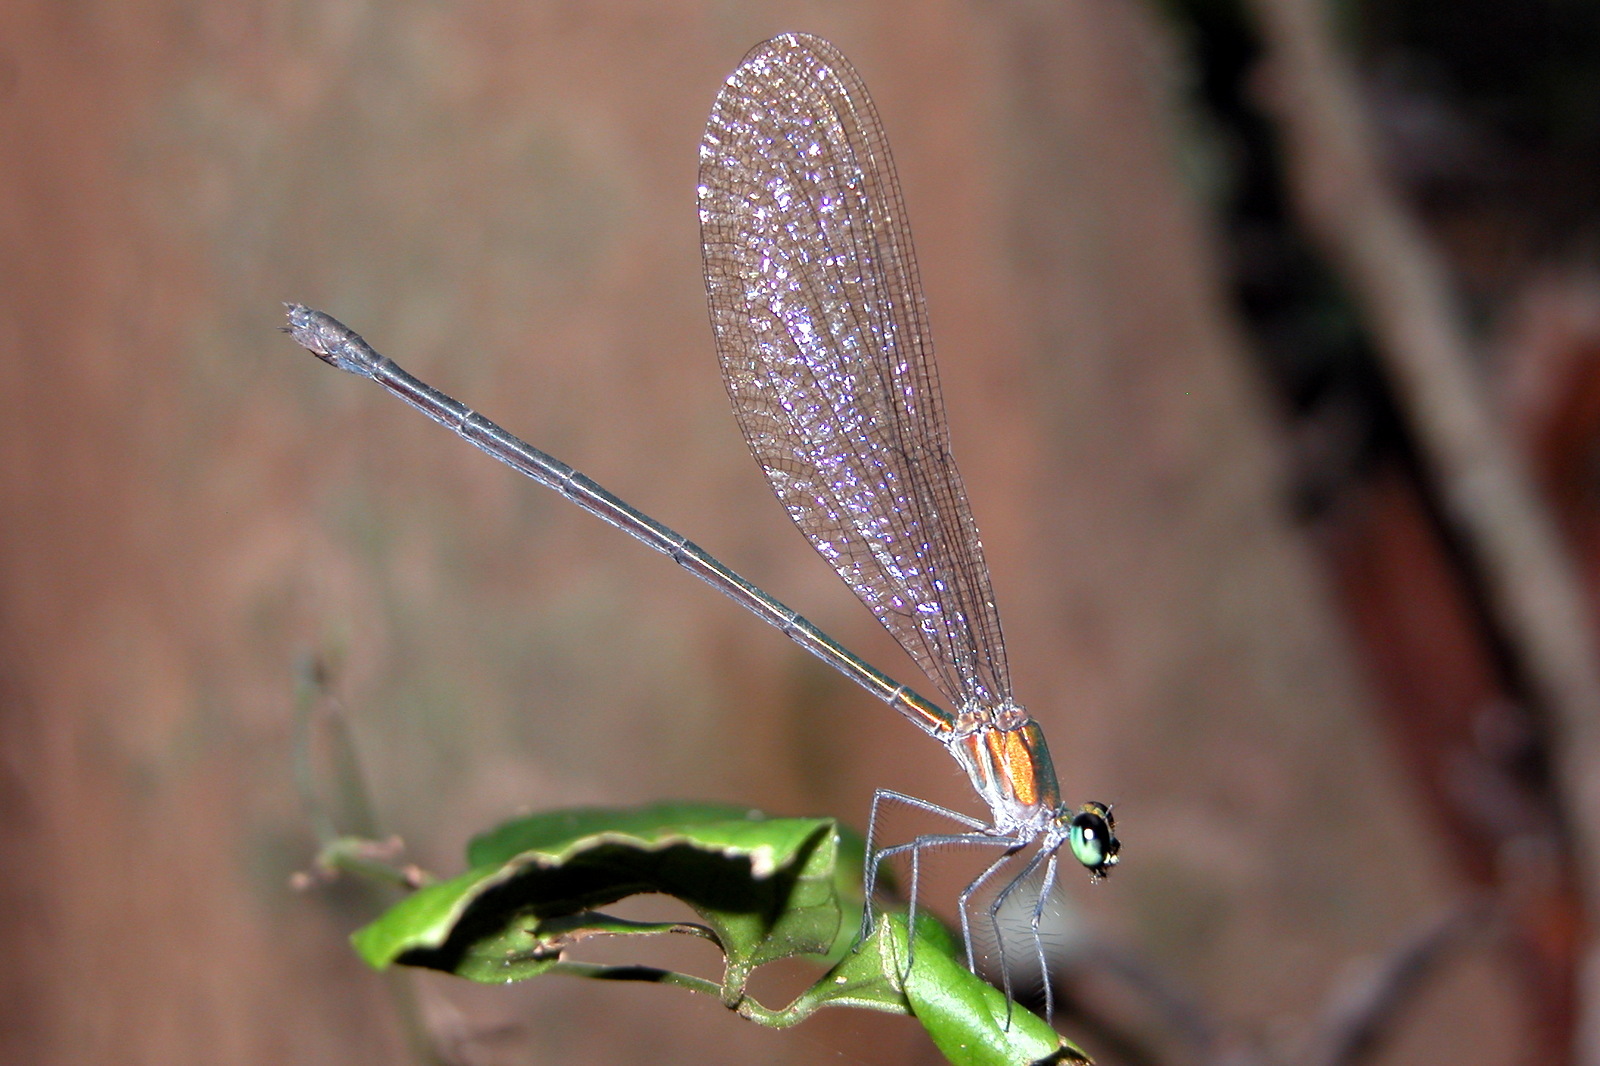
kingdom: Animalia
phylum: Arthropoda
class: Insecta
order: Odonata
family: Calopterygidae
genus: Vestalis
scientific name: Vestalis gracilis
